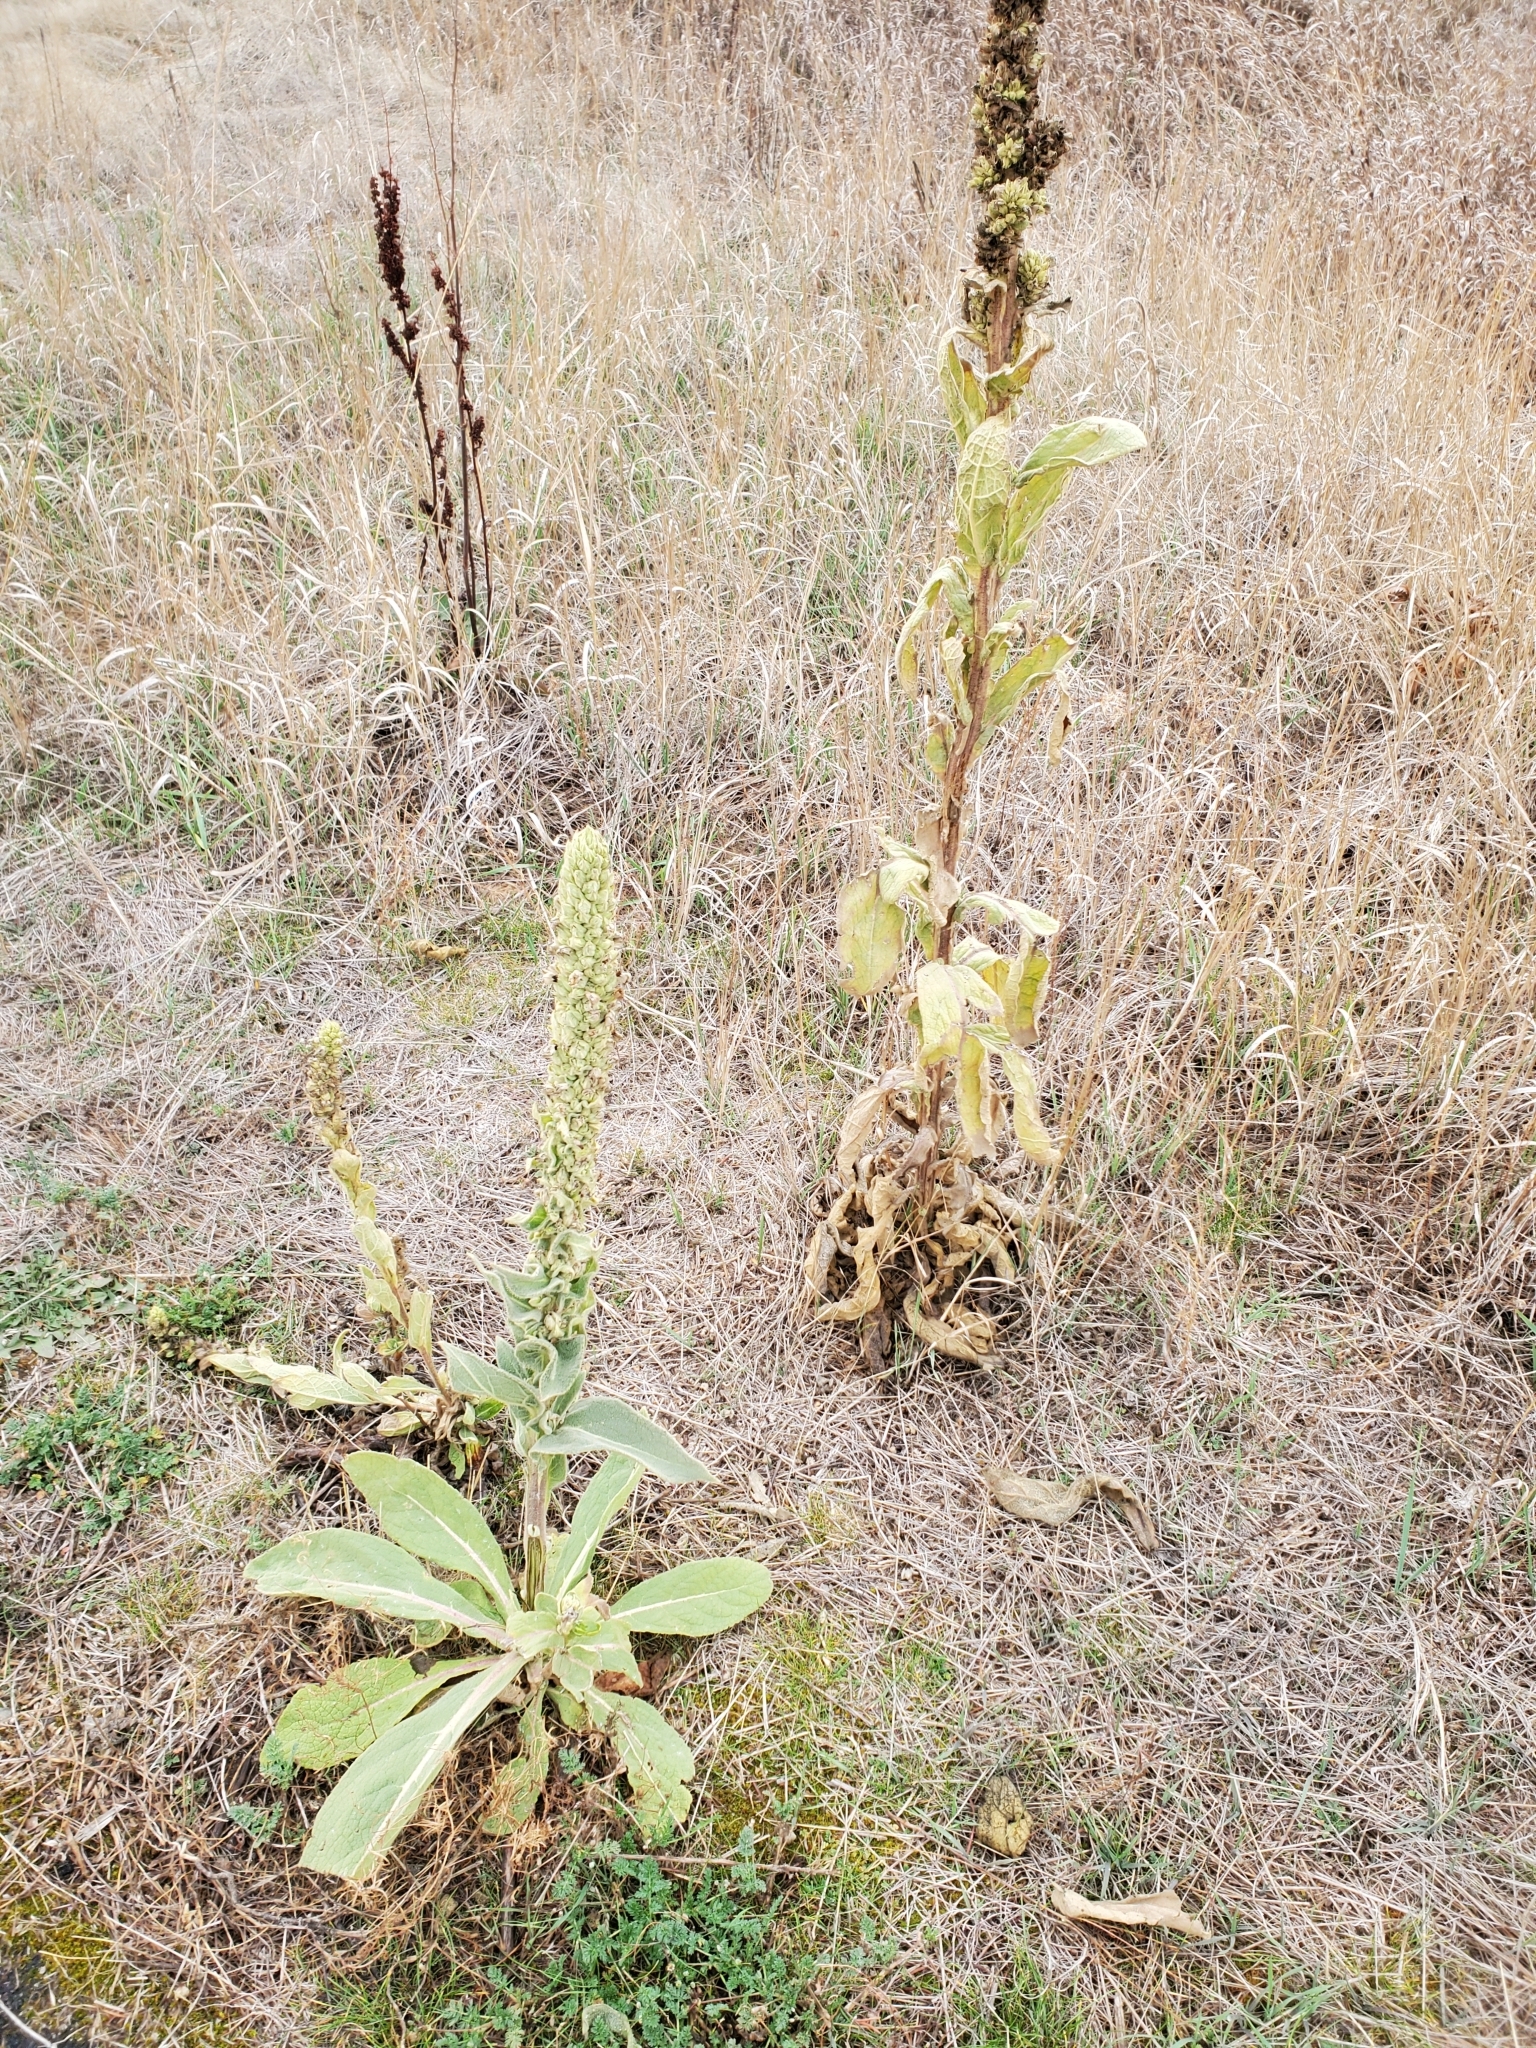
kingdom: Plantae
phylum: Tracheophyta
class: Magnoliopsida
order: Lamiales
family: Scrophulariaceae
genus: Verbascum
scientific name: Verbascum thapsus
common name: Common mullein
